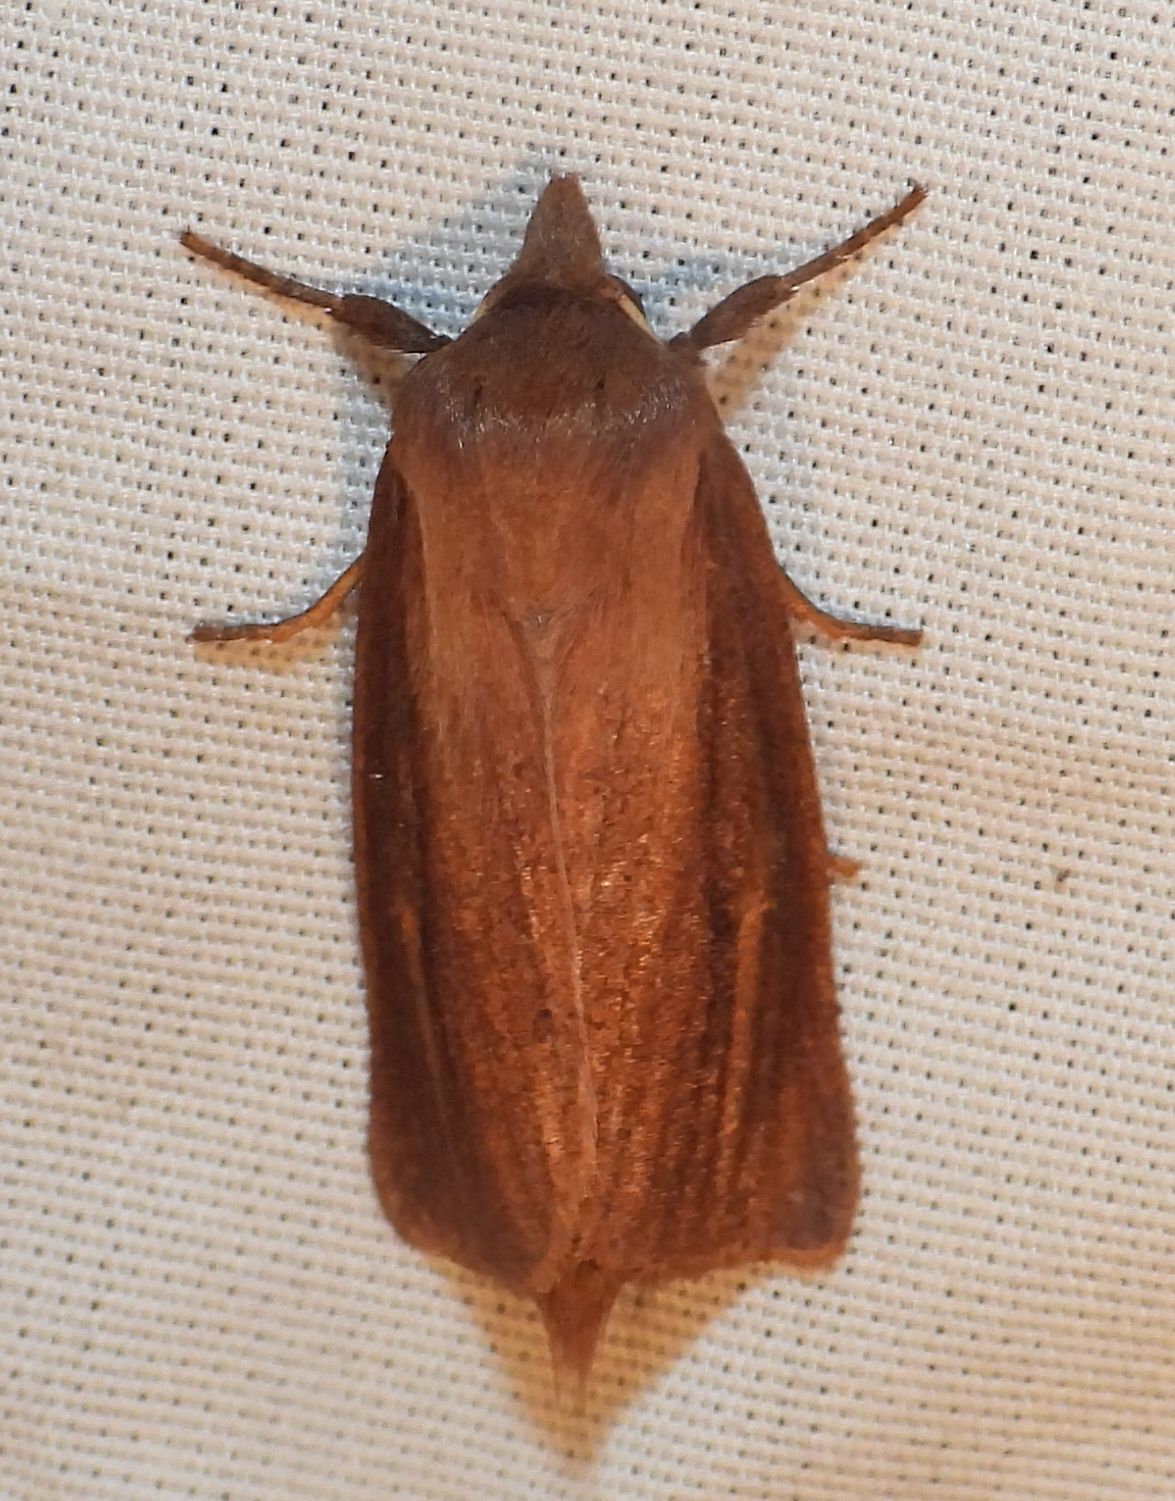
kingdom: Animalia
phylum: Arthropoda
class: Insecta
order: Lepidoptera
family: Noctuidae
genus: Globia
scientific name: Globia laeta
